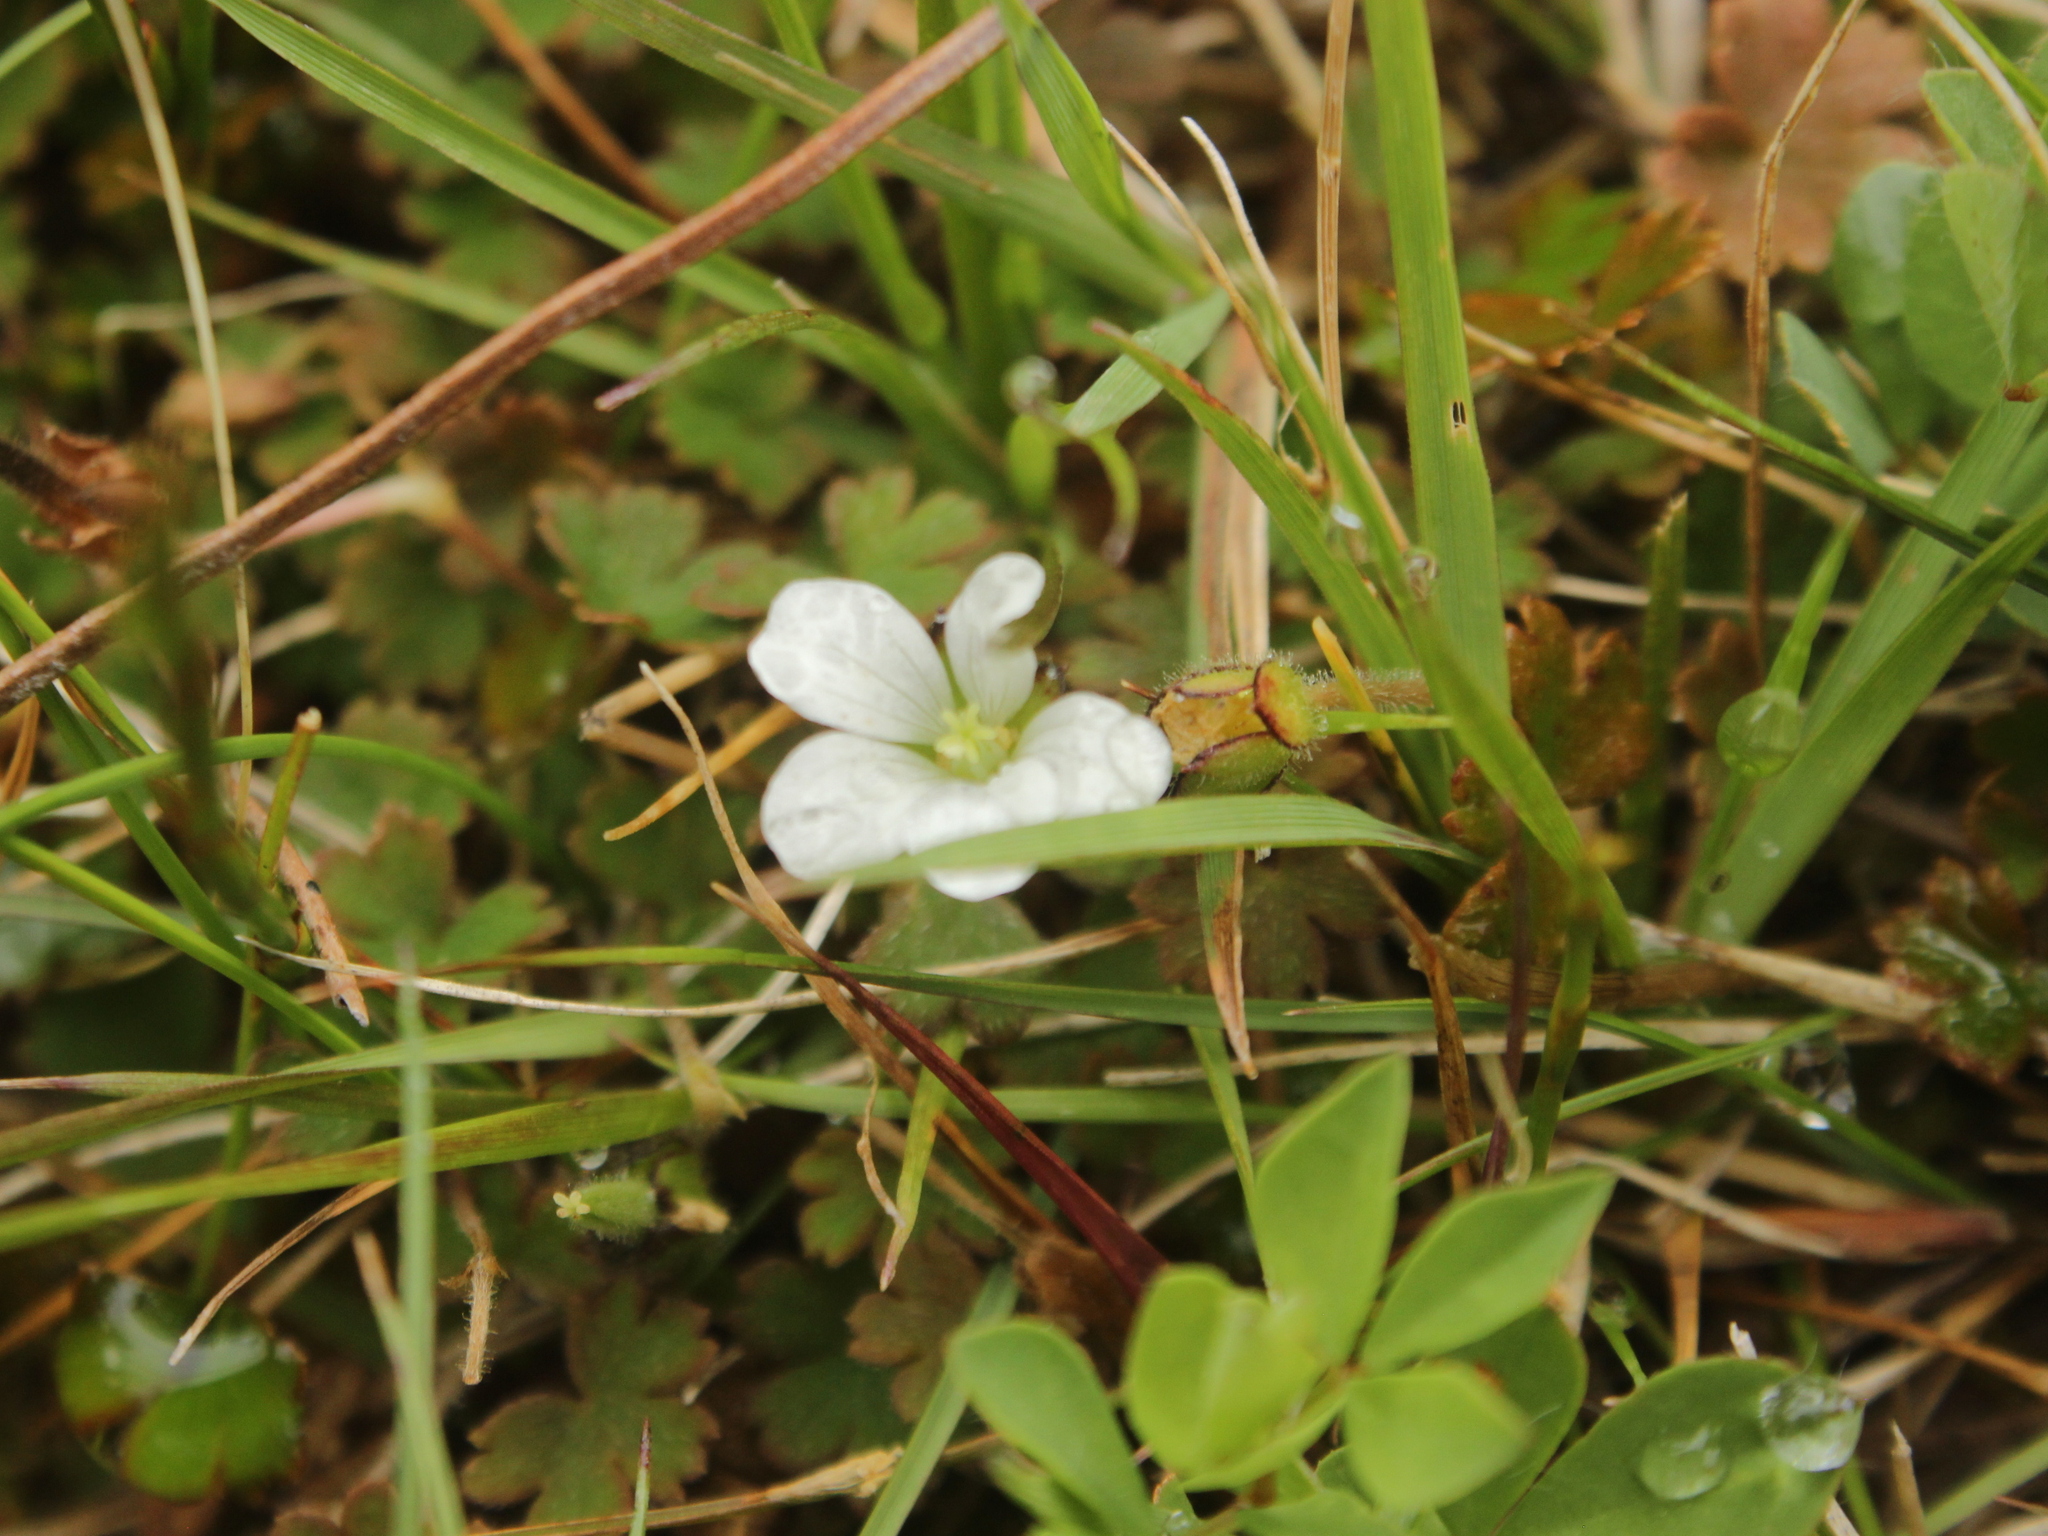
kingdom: Plantae
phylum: Tracheophyta
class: Magnoliopsida
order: Geraniales
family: Geraniaceae
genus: Geranium
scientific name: Geranium
